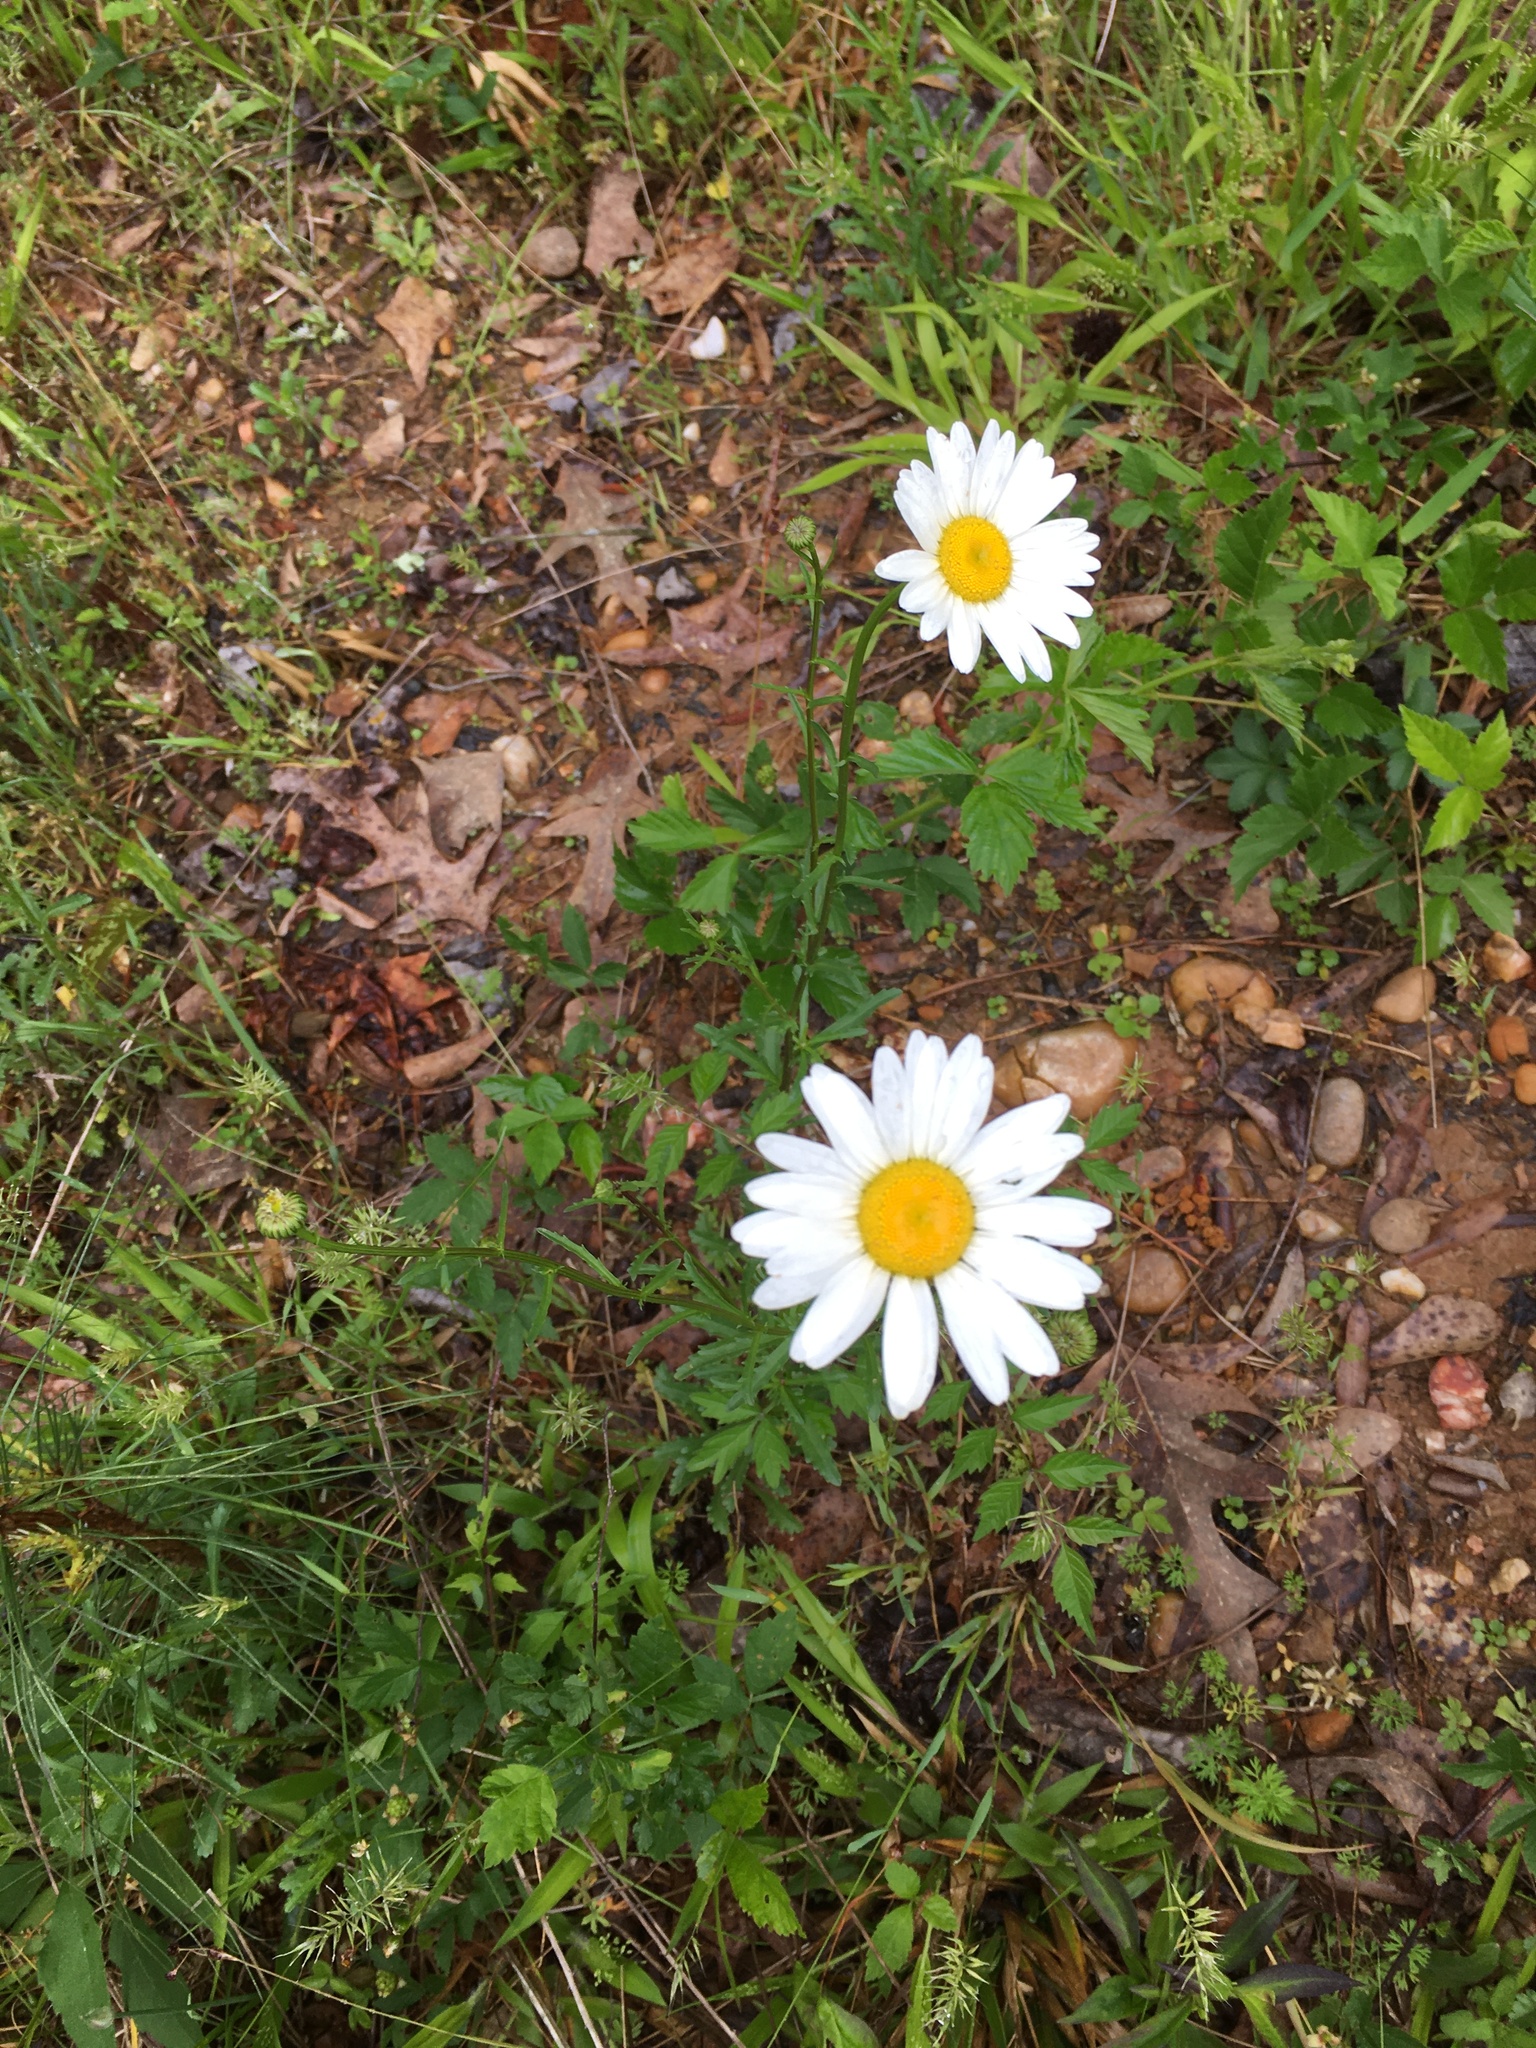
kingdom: Plantae
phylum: Tracheophyta
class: Magnoliopsida
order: Asterales
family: Asteraceae
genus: Leucanthemum
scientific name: Leucanthemum vulgare
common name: Oxeye daisy
